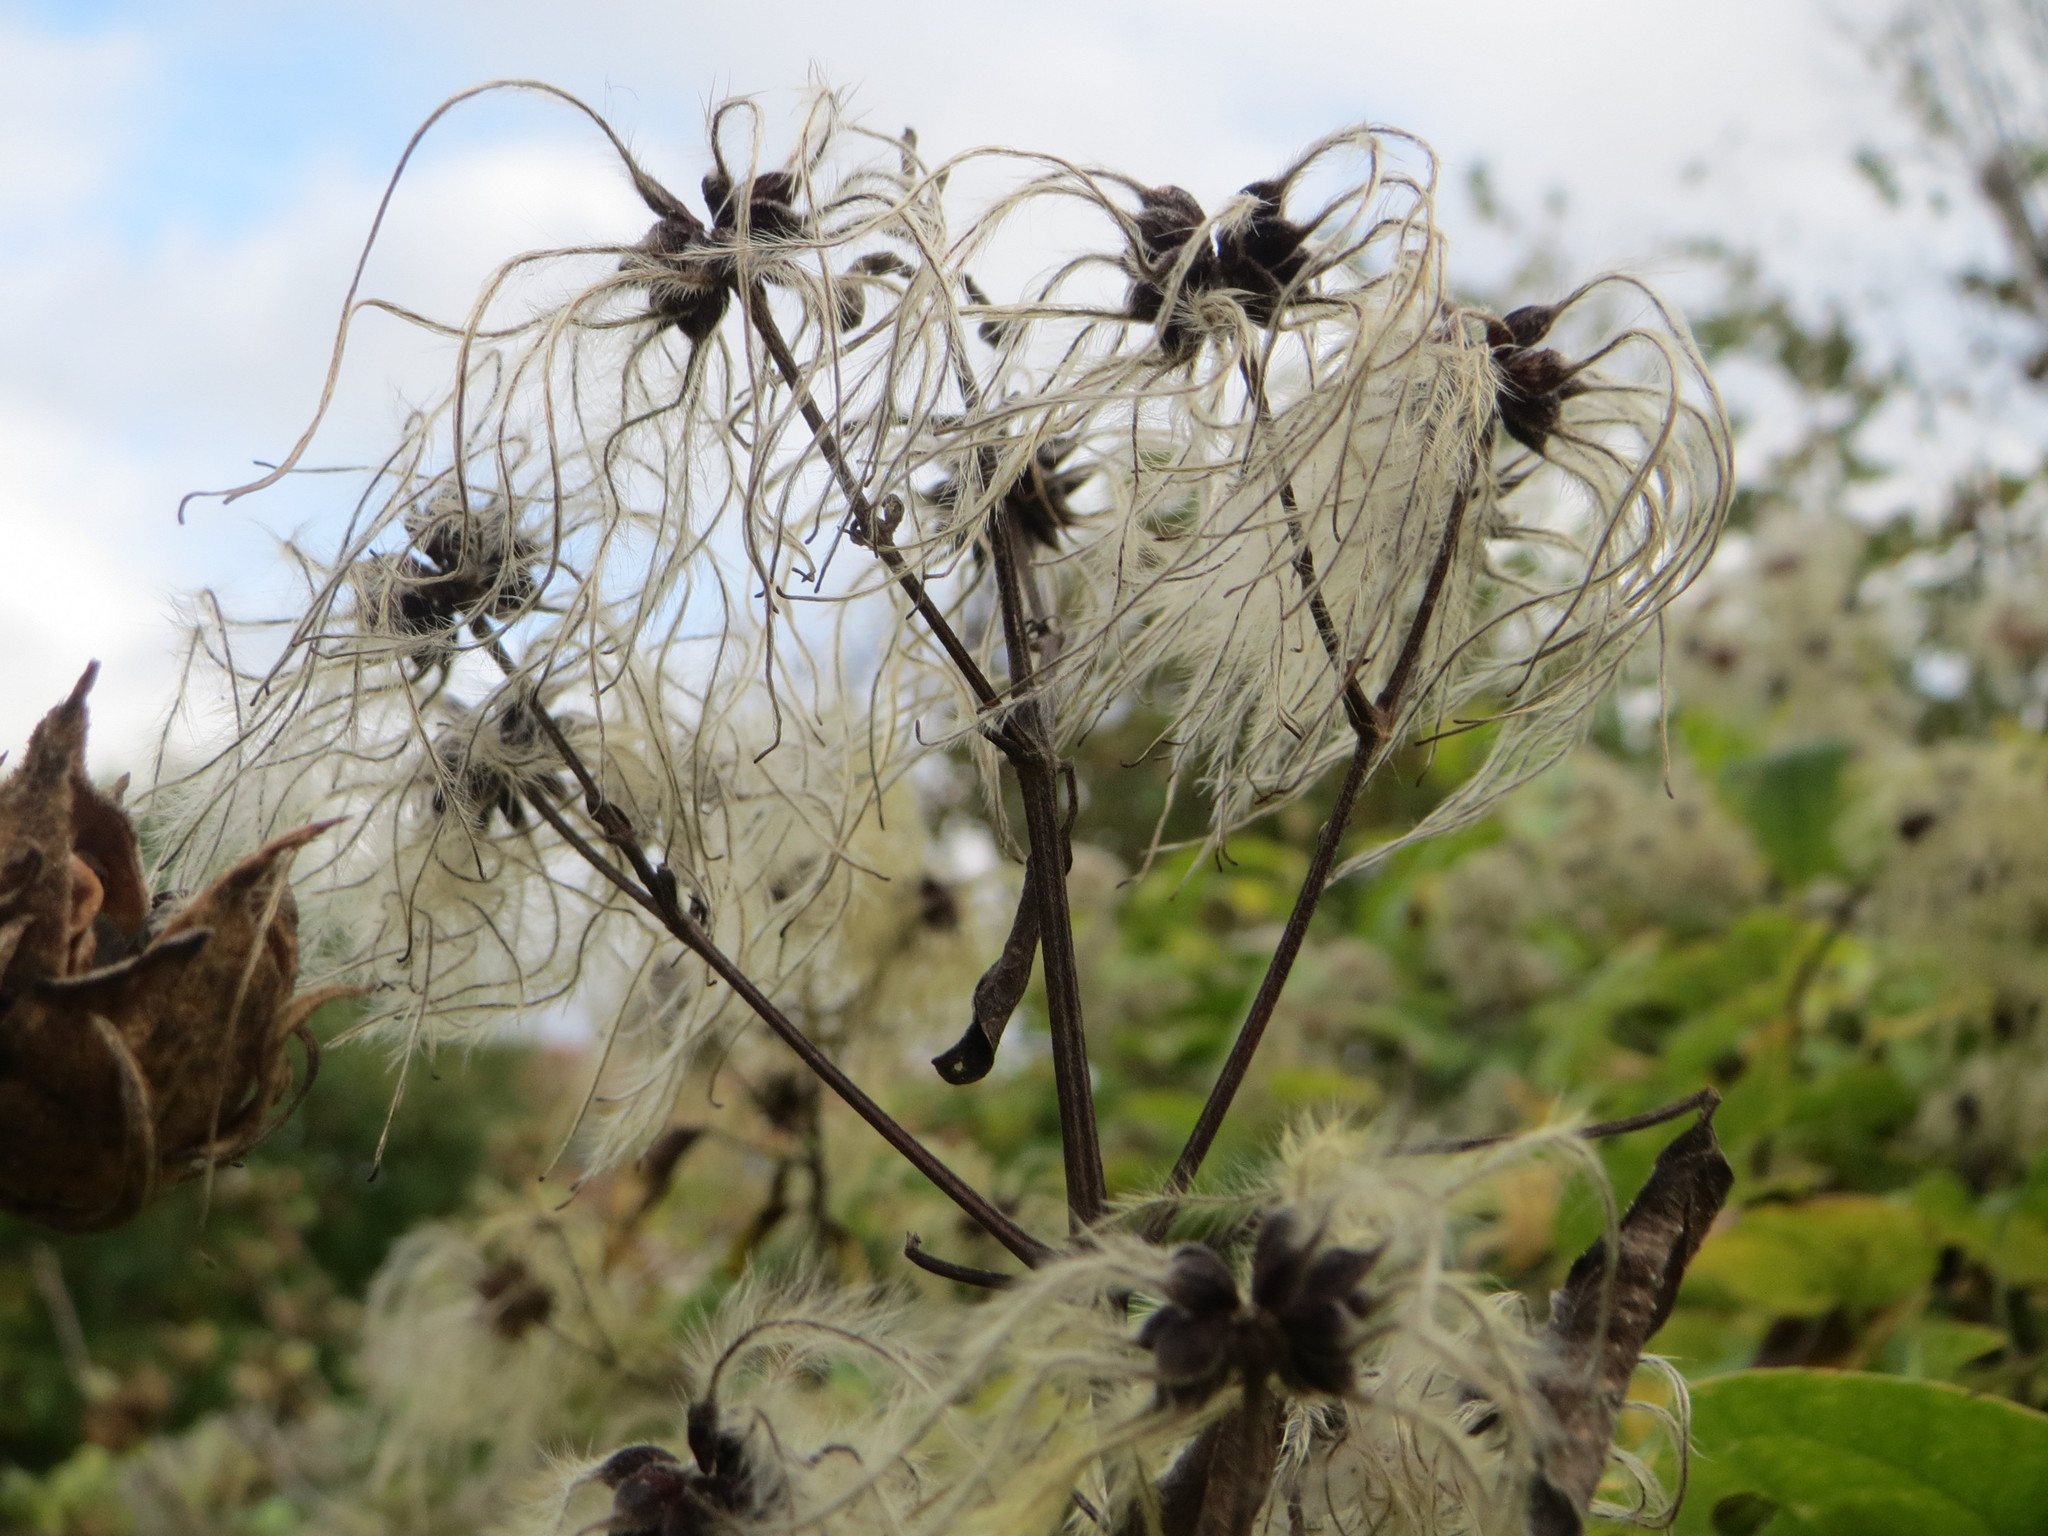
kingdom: Plantae
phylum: Tracheophyta
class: Magnoliopsida
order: Ranunculales
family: Ranunculaceae
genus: Clematis
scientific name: Clematis vitalba
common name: Evergreen clematis
